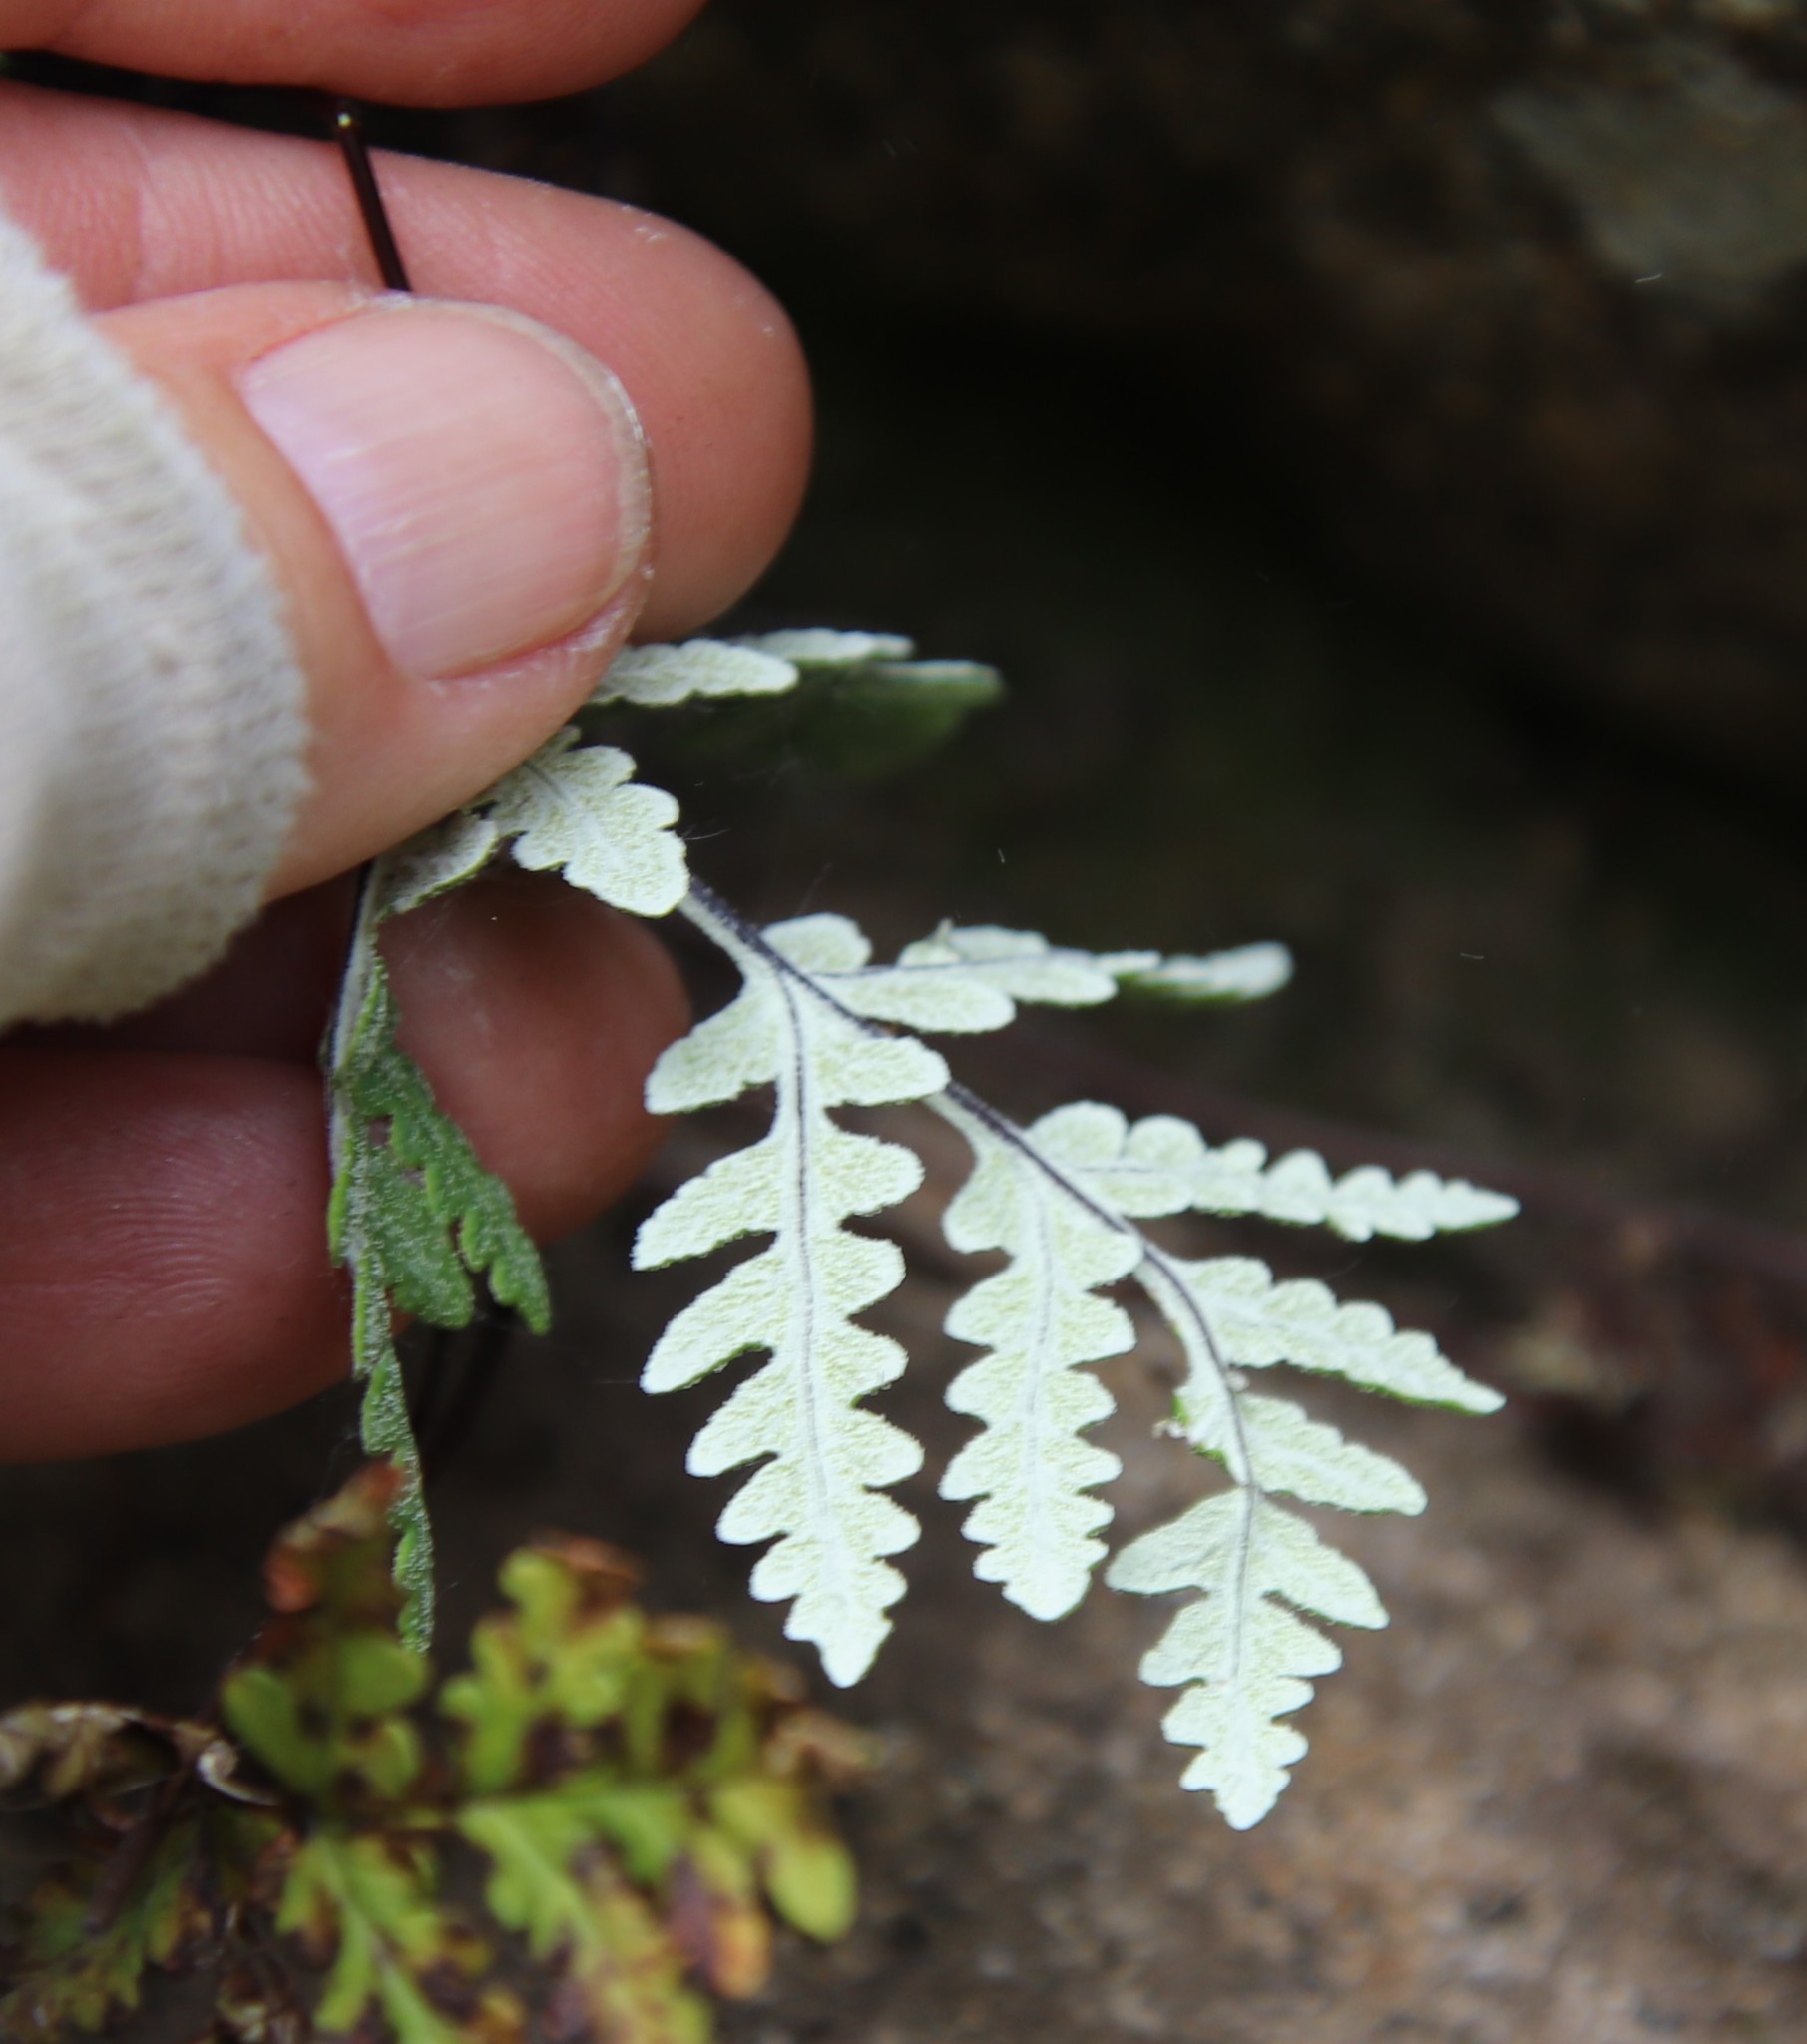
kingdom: Plantae
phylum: Tracheophyta
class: Polypodiopsida
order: Polypodiales
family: Pteridaceae
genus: Pentagramma
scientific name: Pentagramma rebmanii
